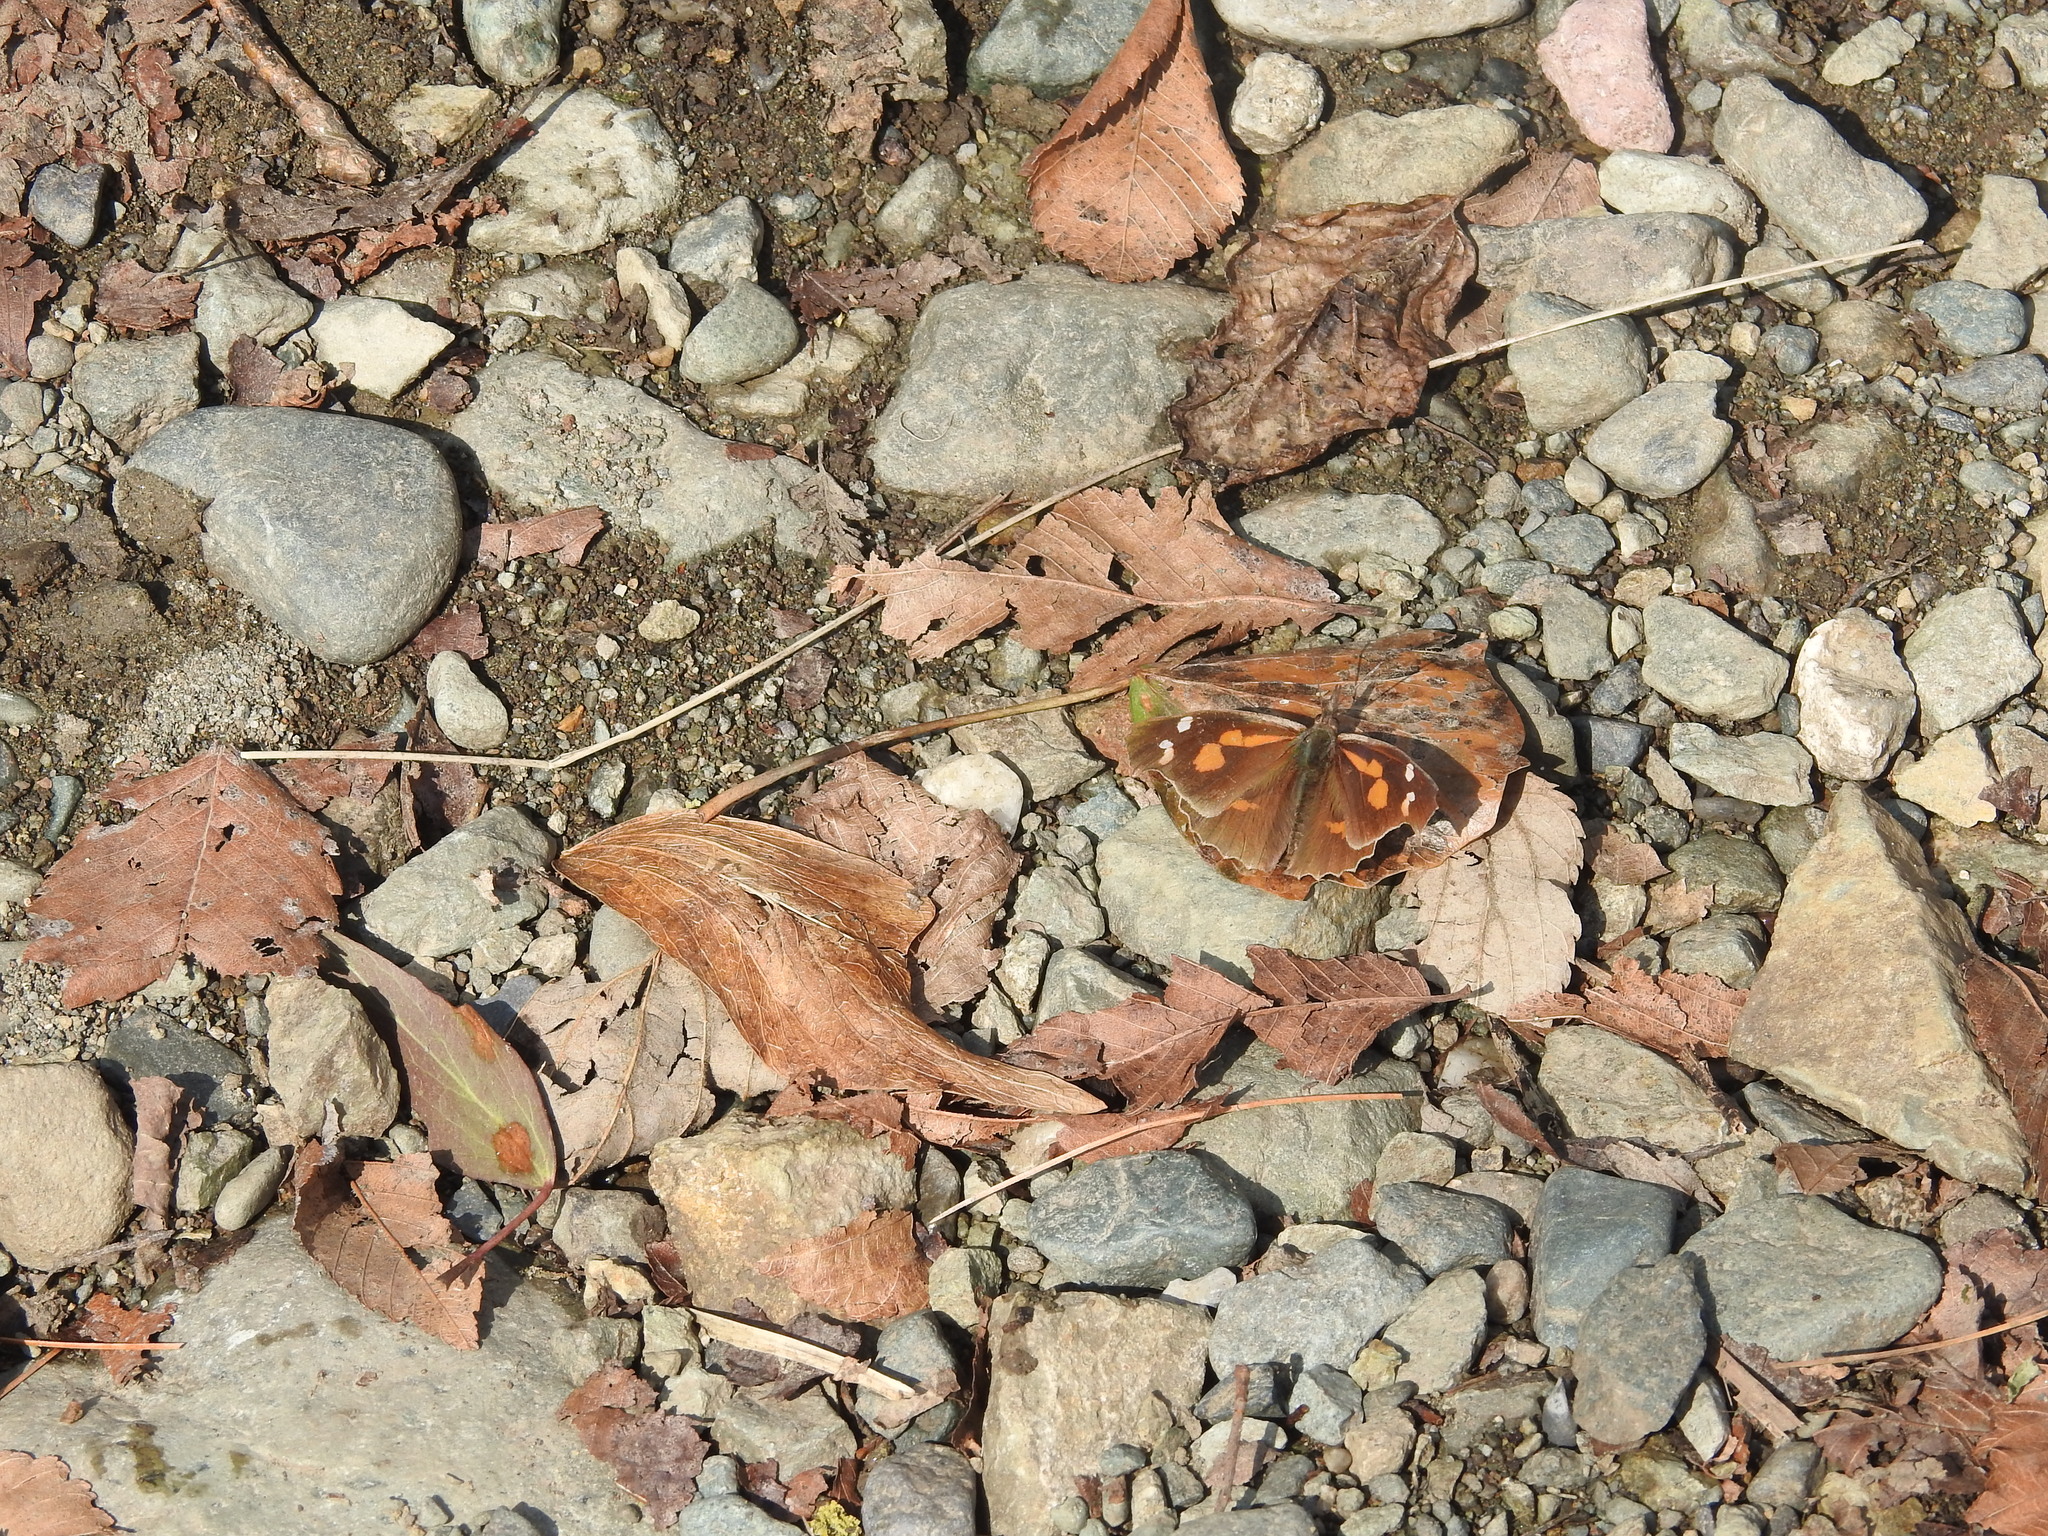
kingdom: Animalia
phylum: Arthropoda
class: Insecta
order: Lepidoptera
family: Nymphalidae
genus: Libythea
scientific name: Libythea lepita
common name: Common beak
